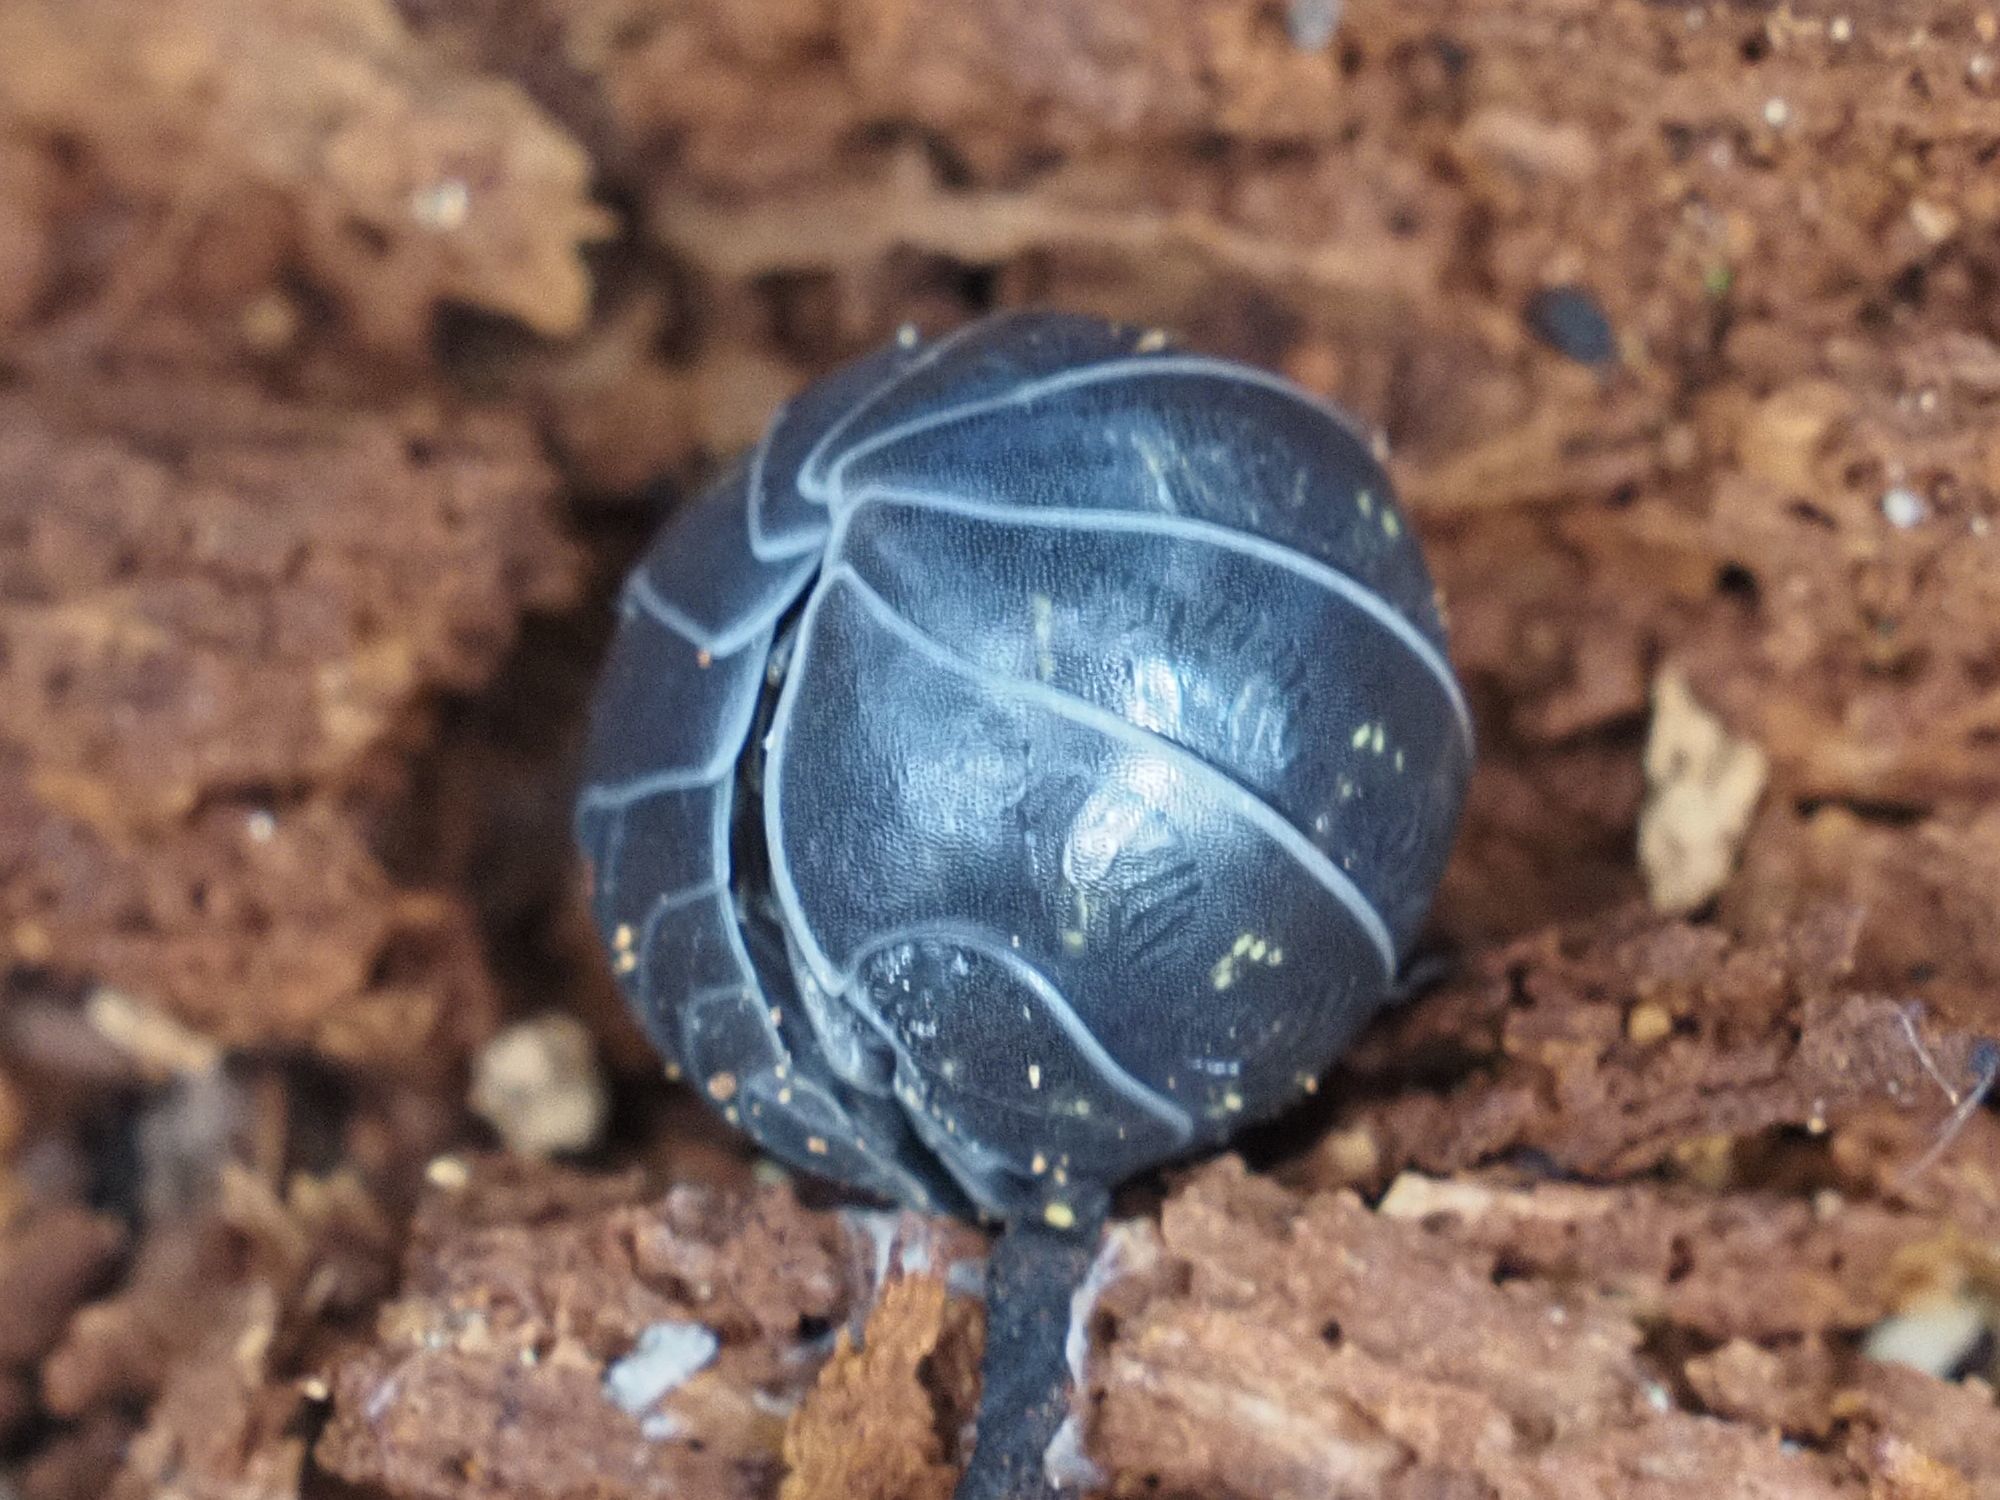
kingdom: Animalia
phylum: Arthropoda
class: Malacostraca
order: Isopoda
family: Armadillidiidae
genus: Armadillidium
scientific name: Armadillidium vulgare
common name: Common pill woodlouse
